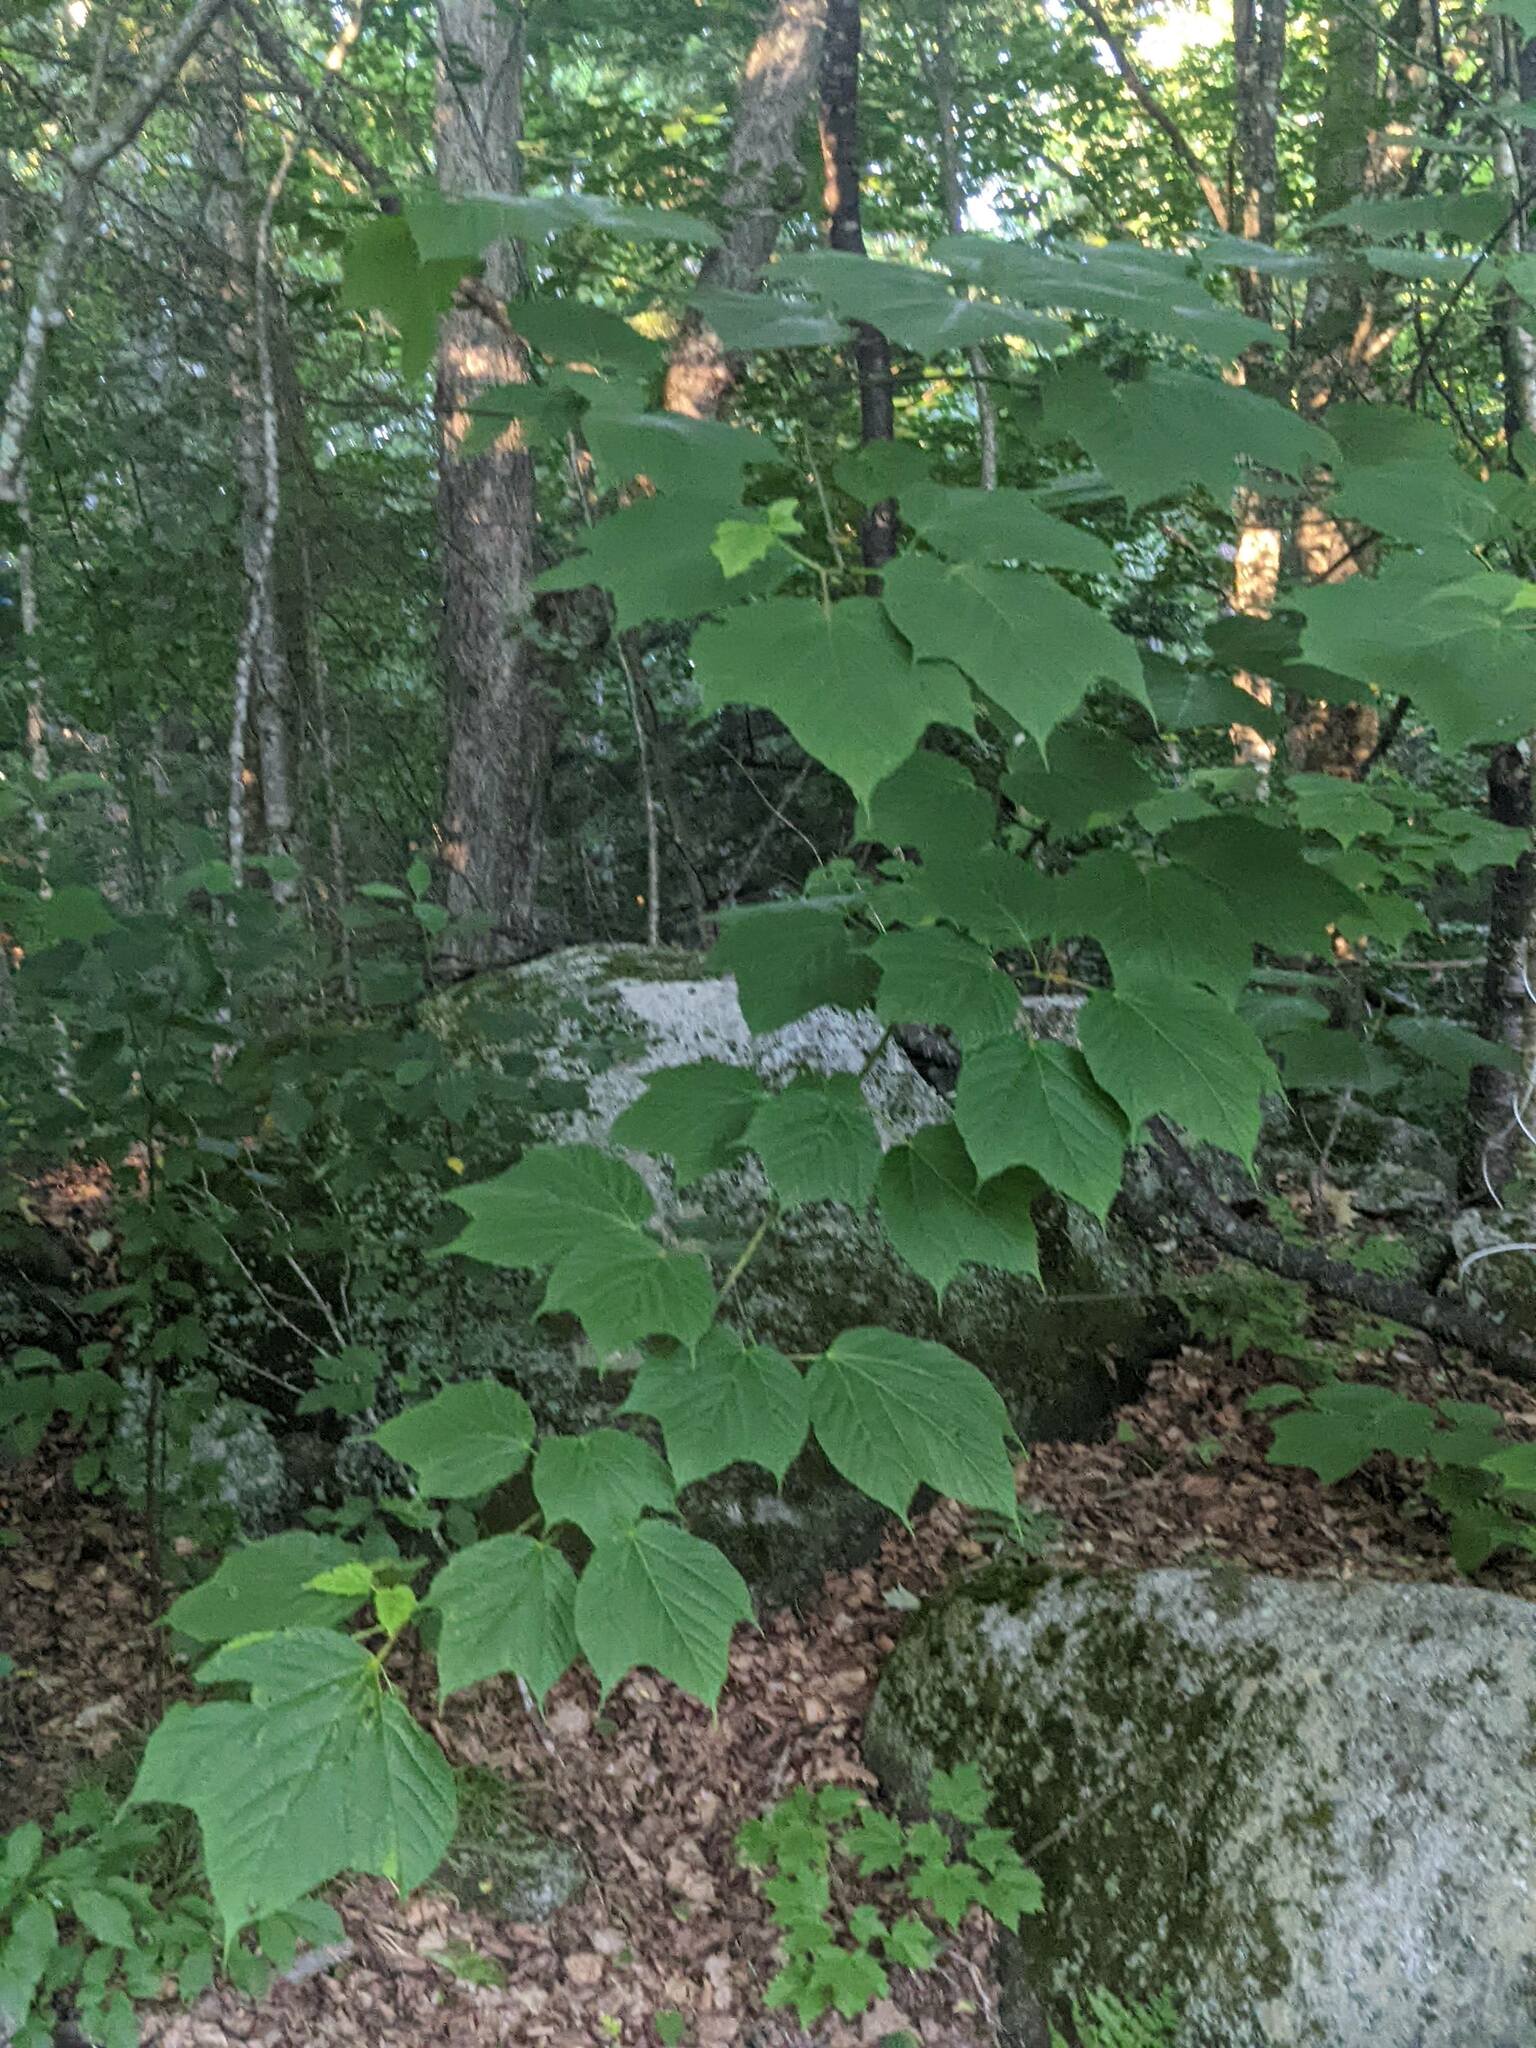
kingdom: Plantae
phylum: Tracheophyta
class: Magnoliopsida
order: Sapindales
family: Sapindaceae
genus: Acer
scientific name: Acer pensylvanicum
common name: Moosewood
